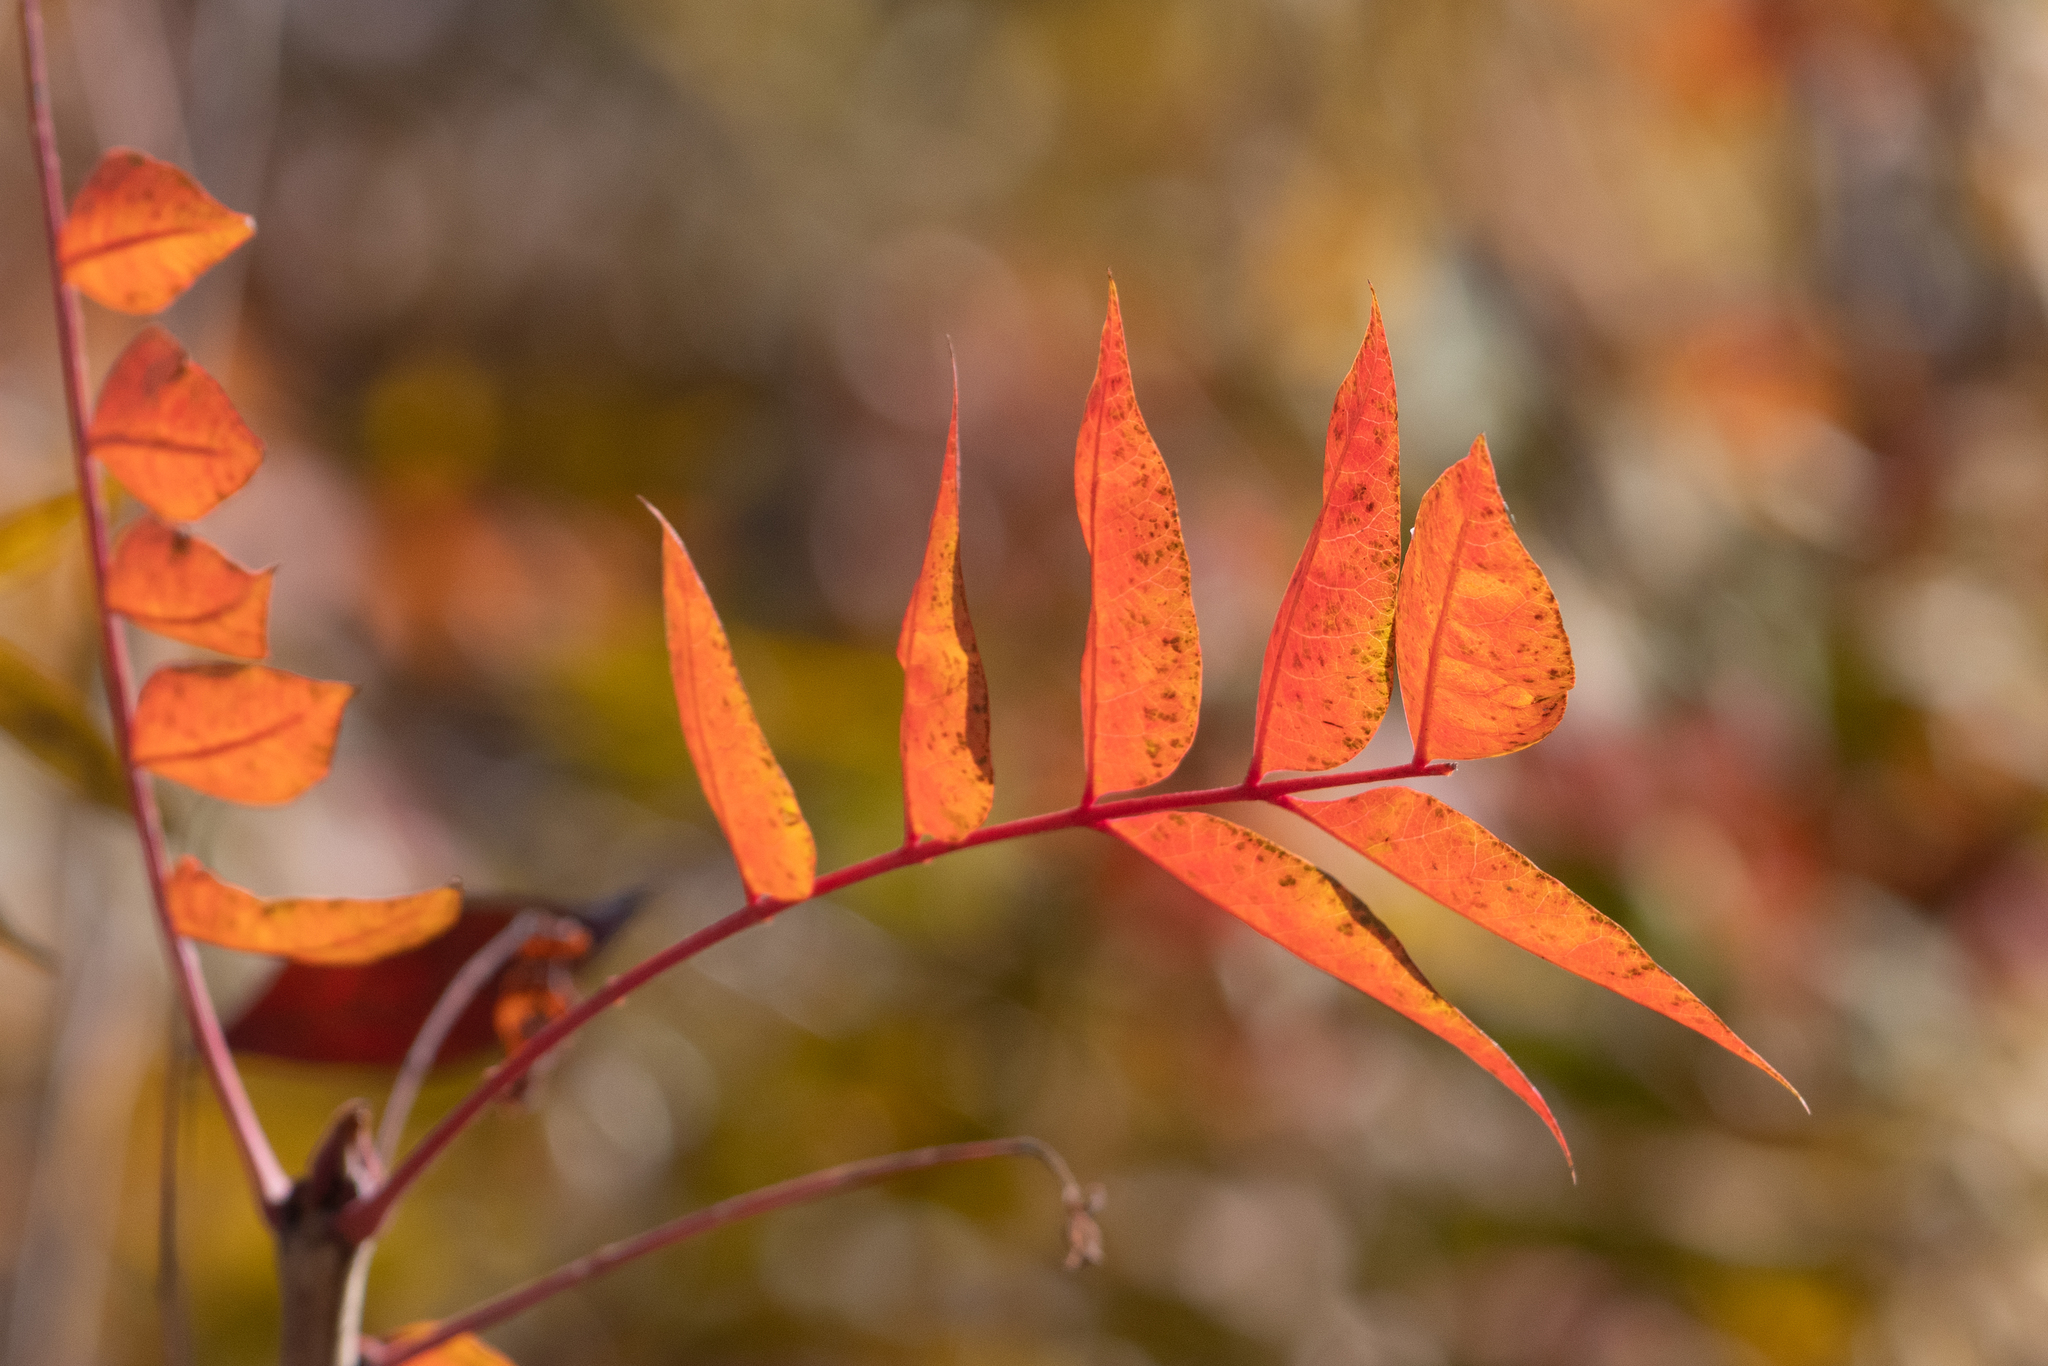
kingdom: Plantae
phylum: Tracheophyta
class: Magnoliopsida
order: Sapindales
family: Anacardiaceae
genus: Pistacia
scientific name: Pistacia chinensis
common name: Chinese pistache
